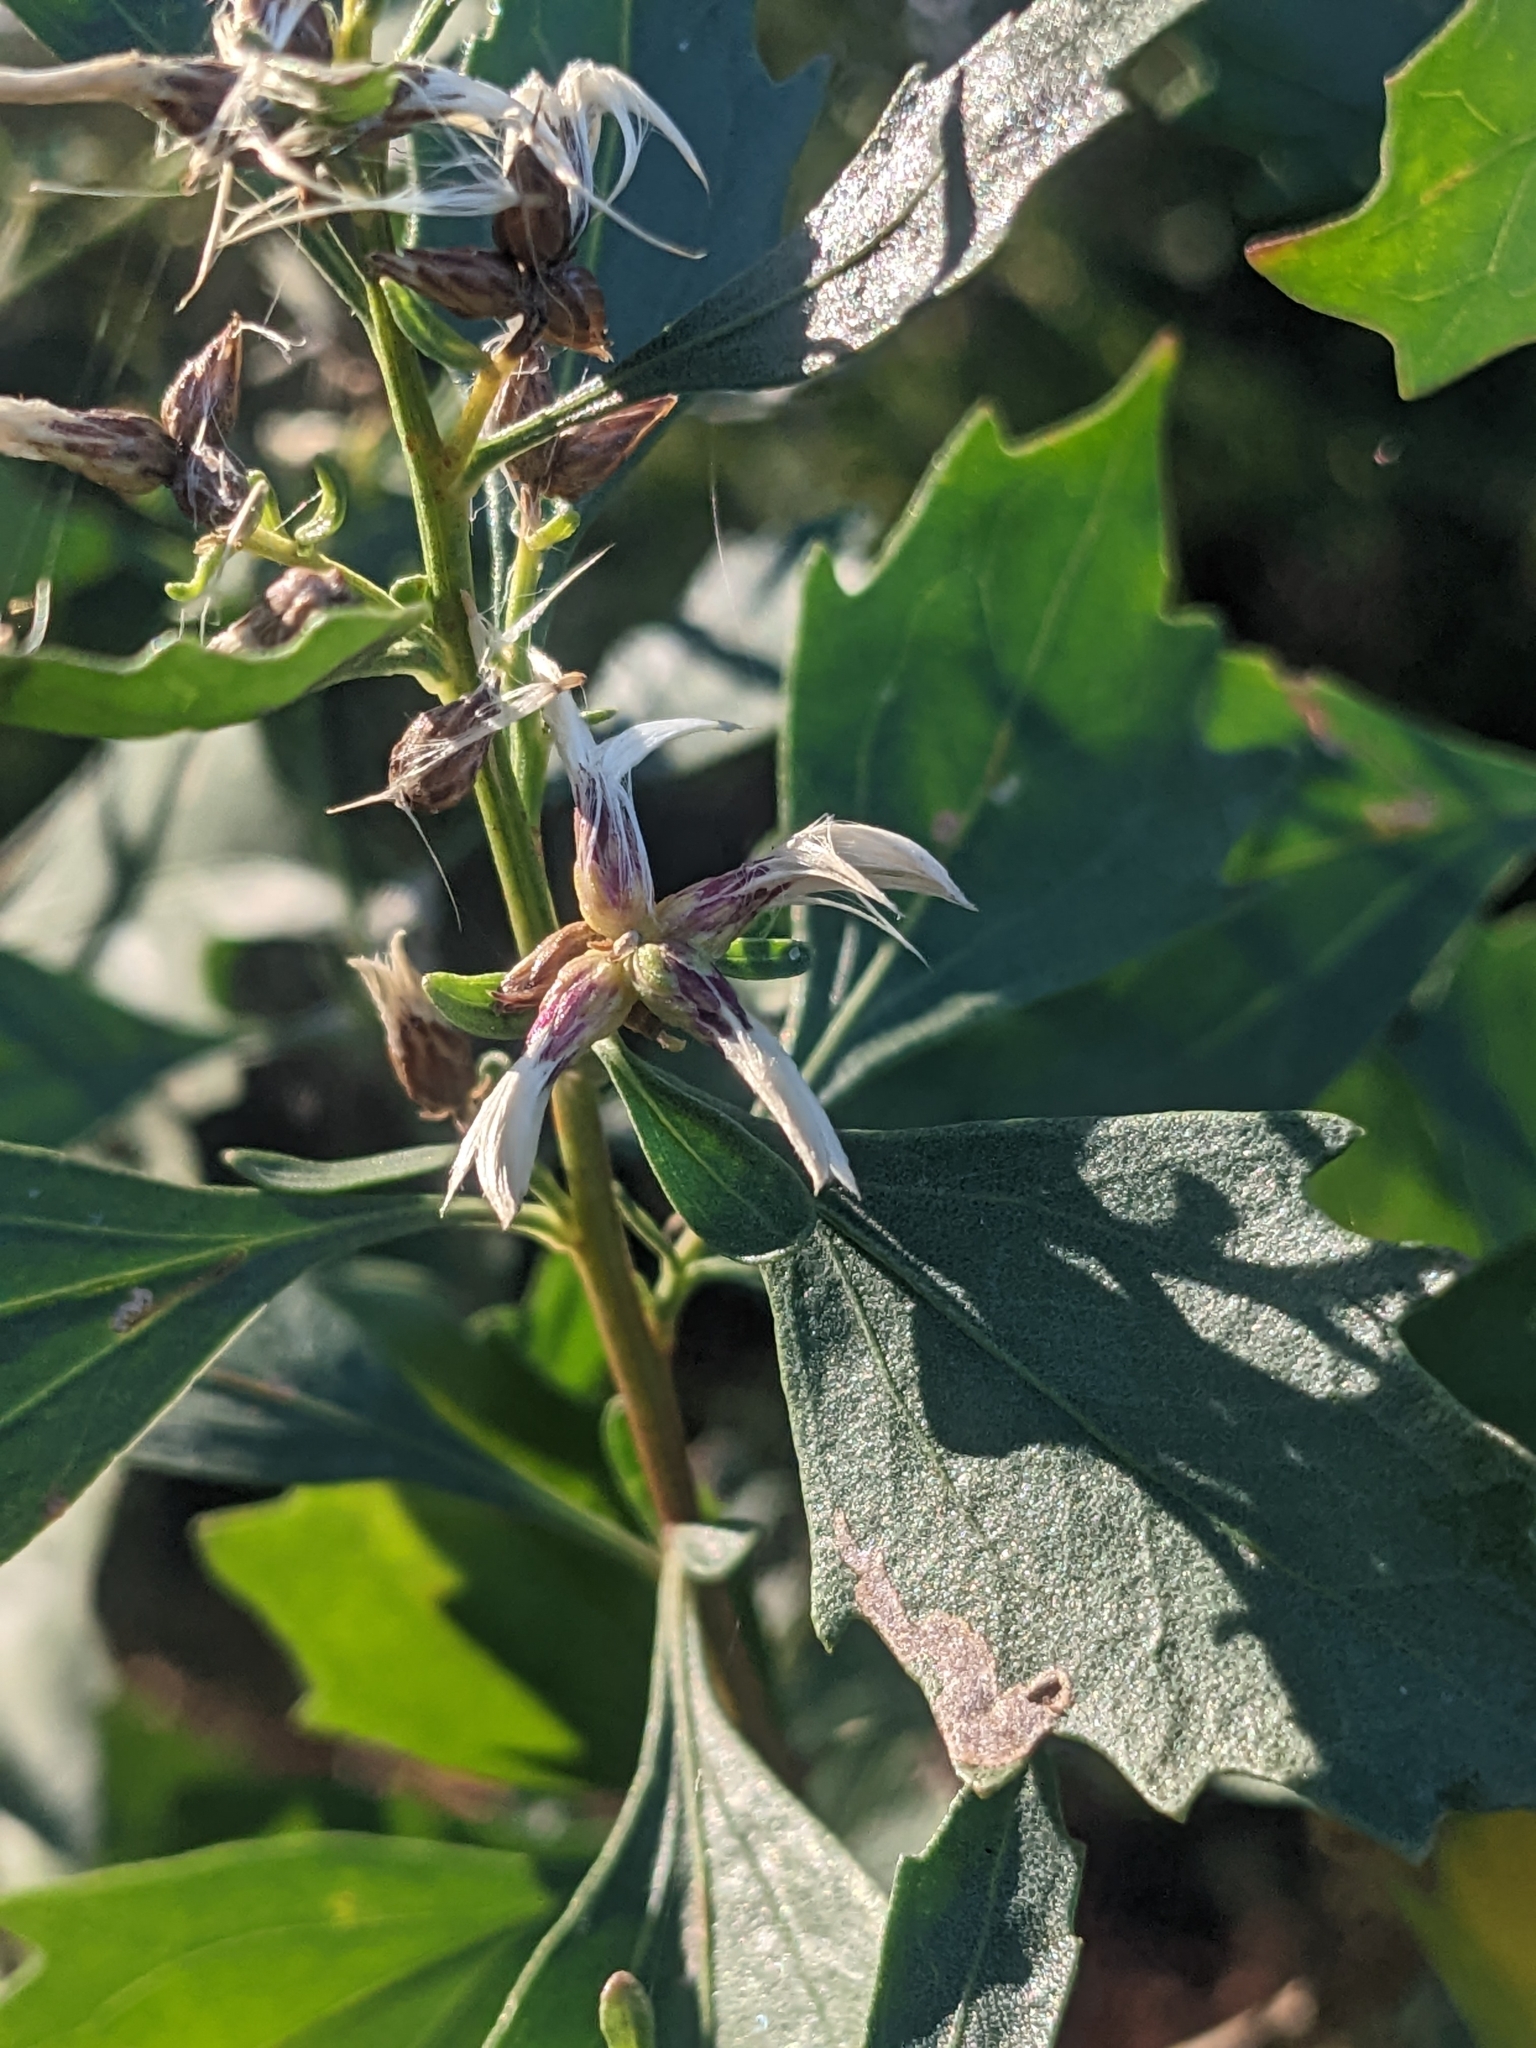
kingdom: Plantae
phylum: Tracheophyta
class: Magnoliopsida
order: Asterales
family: Asteraceae
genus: Baccharis
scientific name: Baccharis halimifolia
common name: Eastern baccharis
